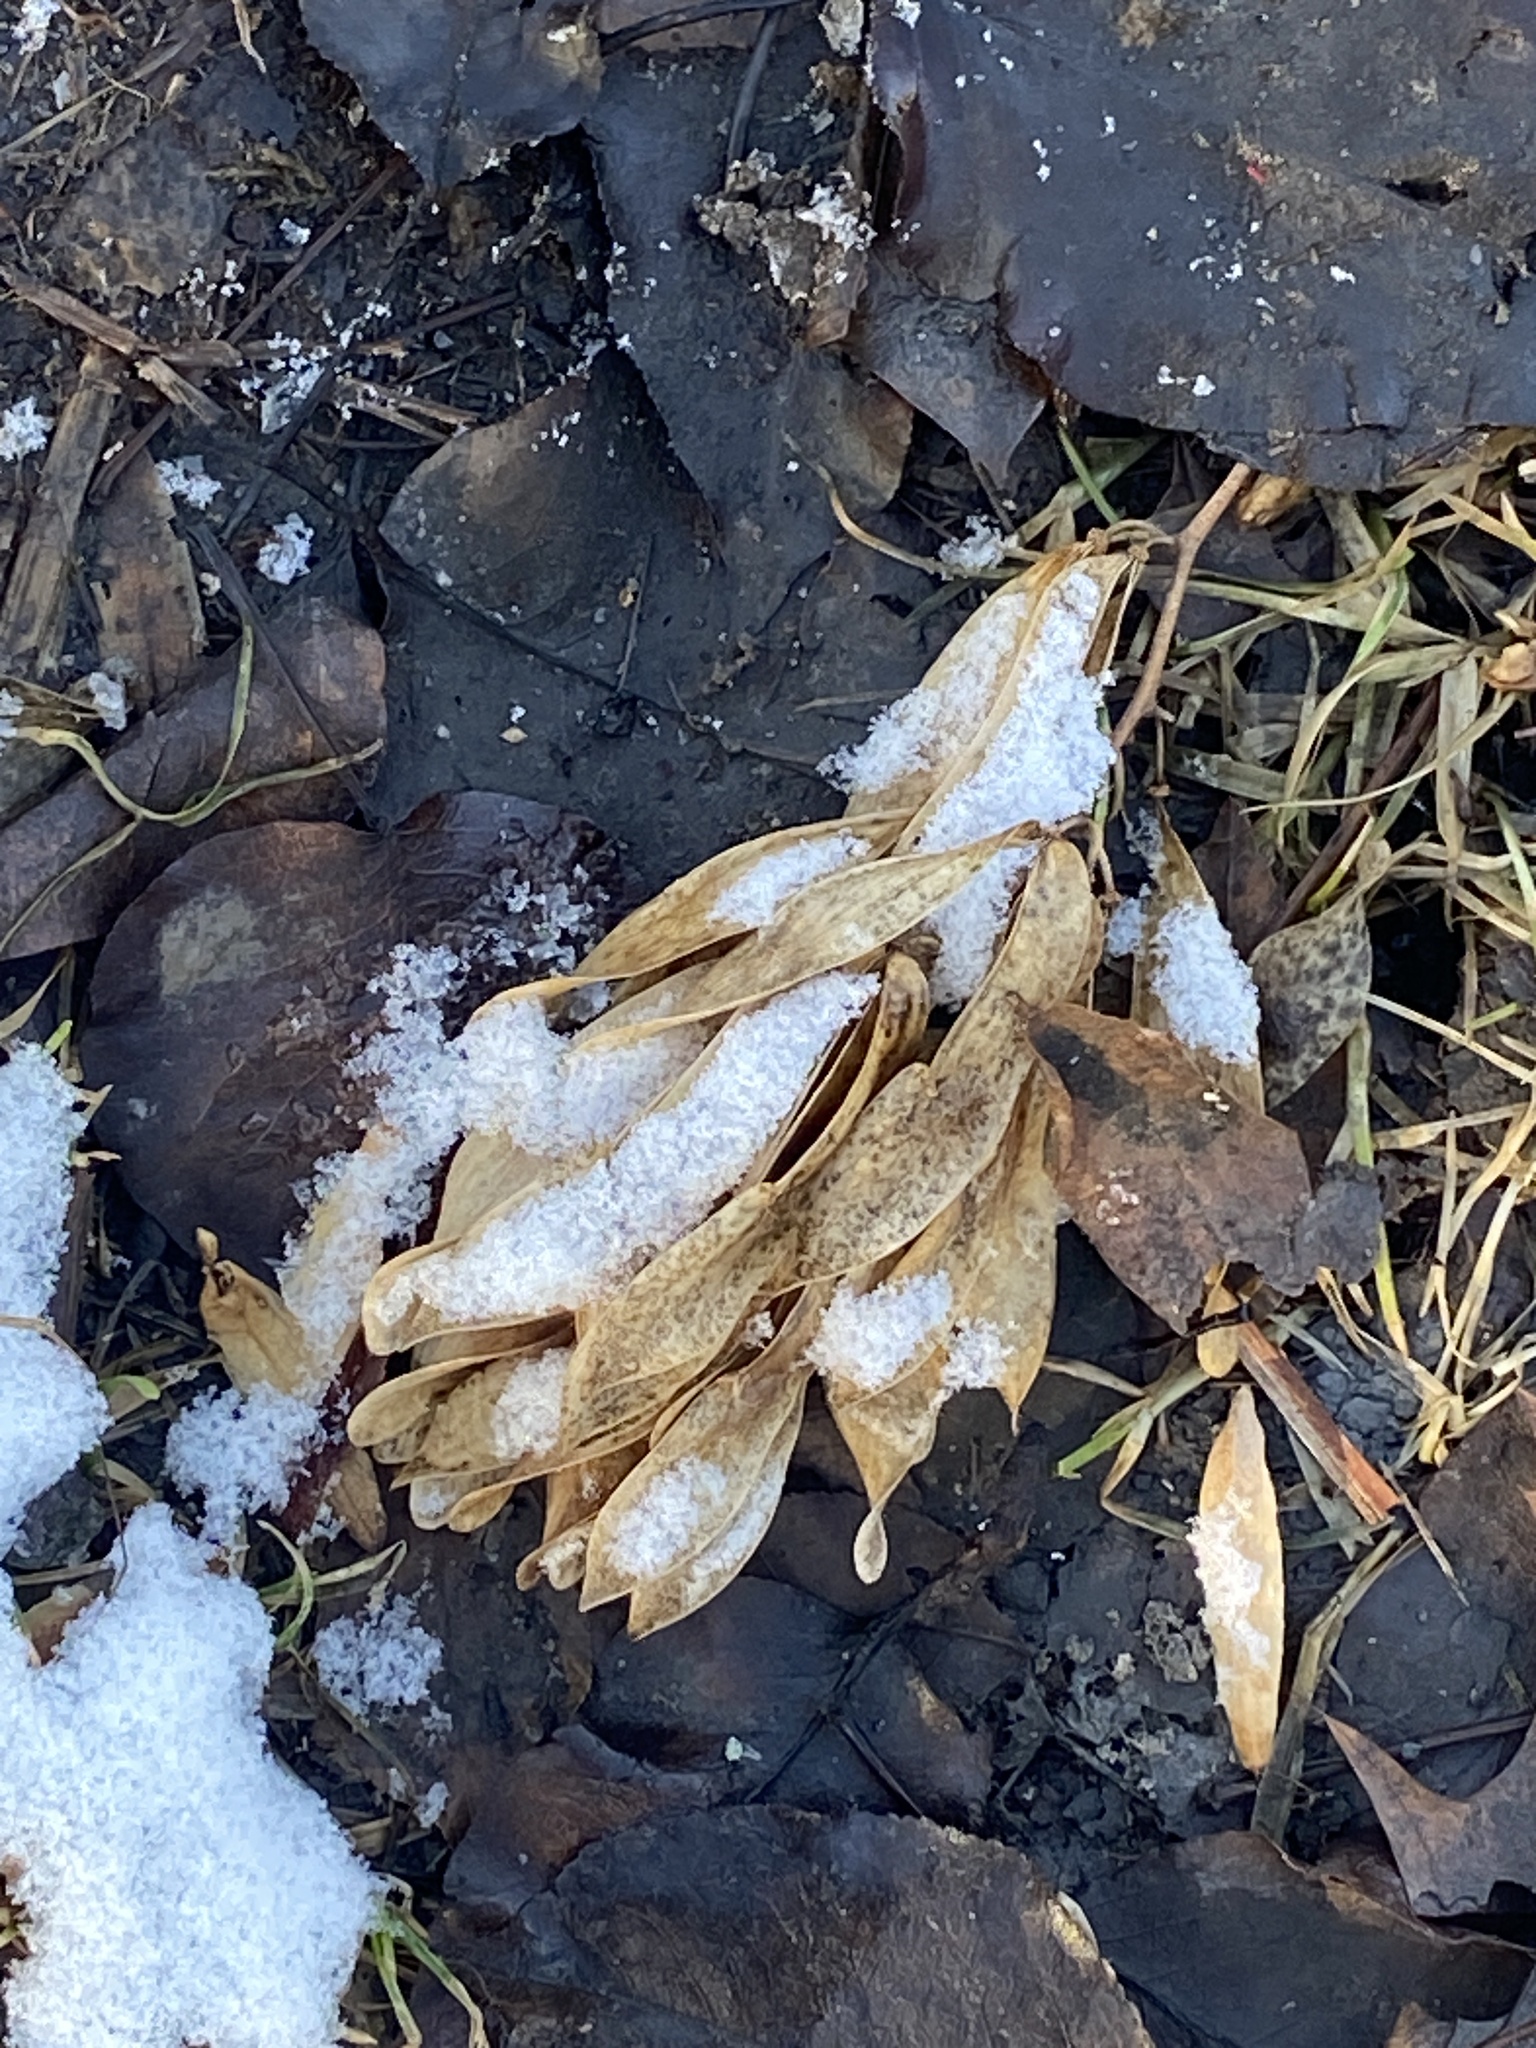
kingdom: Plantae
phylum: Tracheophyta
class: Magnoliopsida
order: Sapindales
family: Simaroubaceae
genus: Ailanthus
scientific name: Ailanthus altissima
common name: Tree-of-heaven
